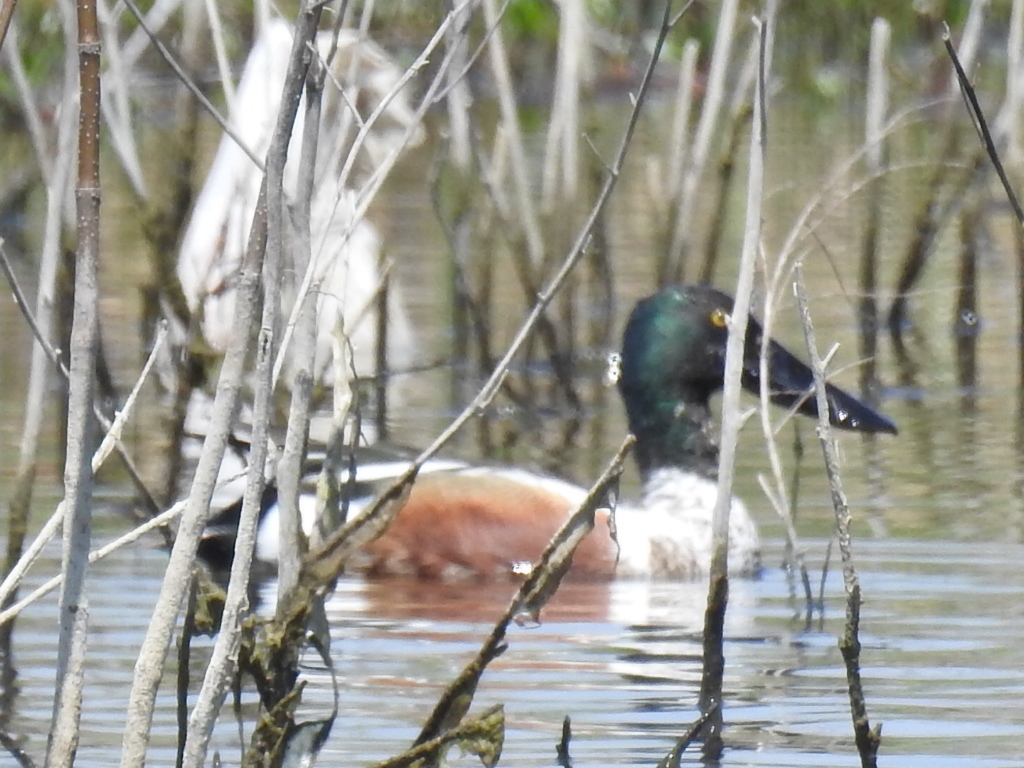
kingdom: Animalia
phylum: Chordata
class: Aves
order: Anseriformes
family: Anatidae
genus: Spatula
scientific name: Spatula clypeata
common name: Northern shoveler
